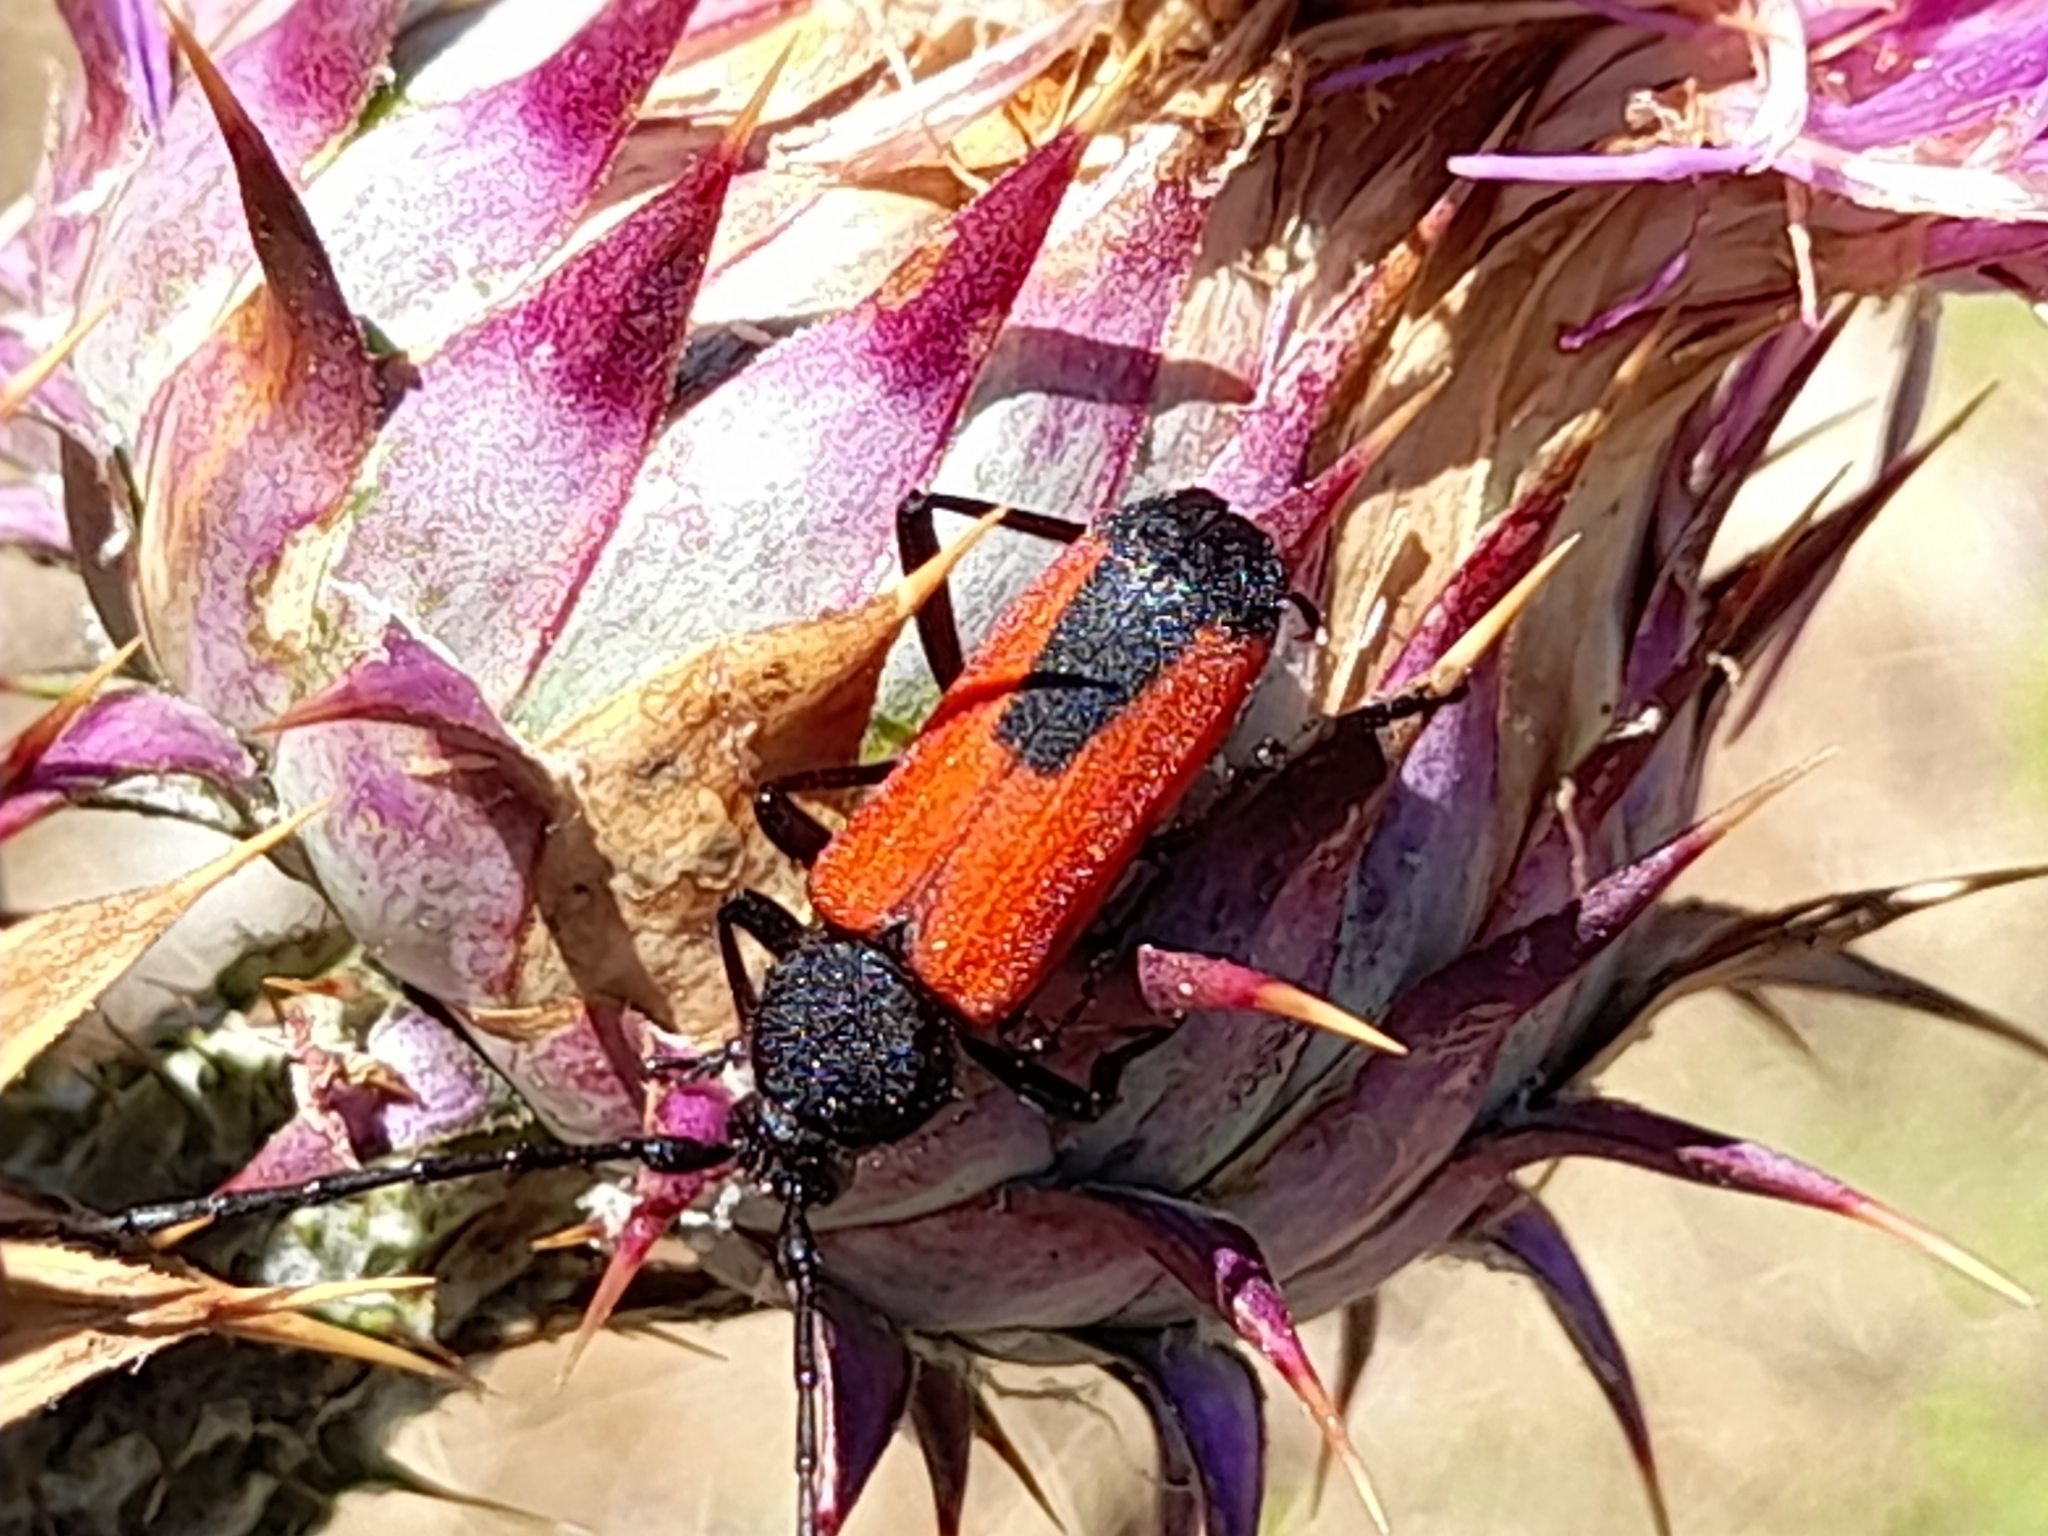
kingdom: Animalia
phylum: Arthropoda
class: Insecta
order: Coleoptera
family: Cerambycidae
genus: Purpuricenus
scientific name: Purpuricenus budensis
